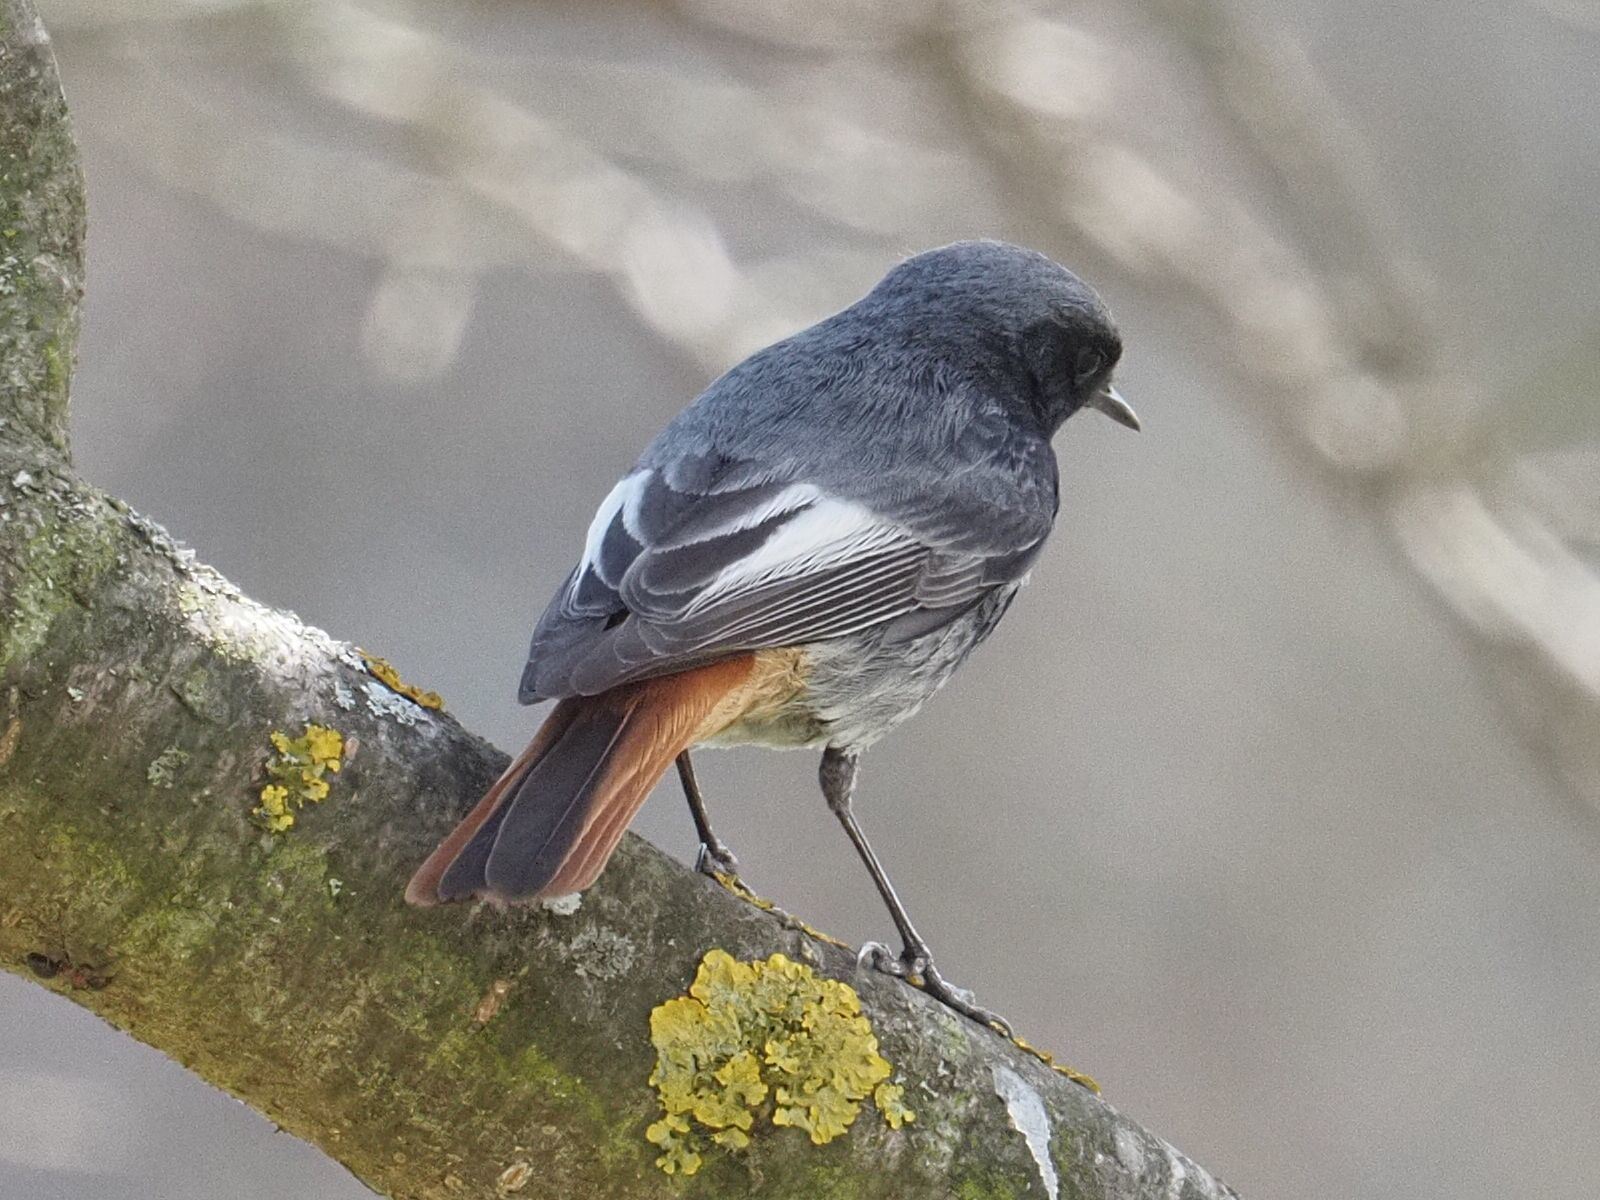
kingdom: Animalia
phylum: Chordata
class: Aves
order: Passeriformes
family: Muscicapidae
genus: Phoenicurus
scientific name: Phoenicurus ochruros
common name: Black redstart
